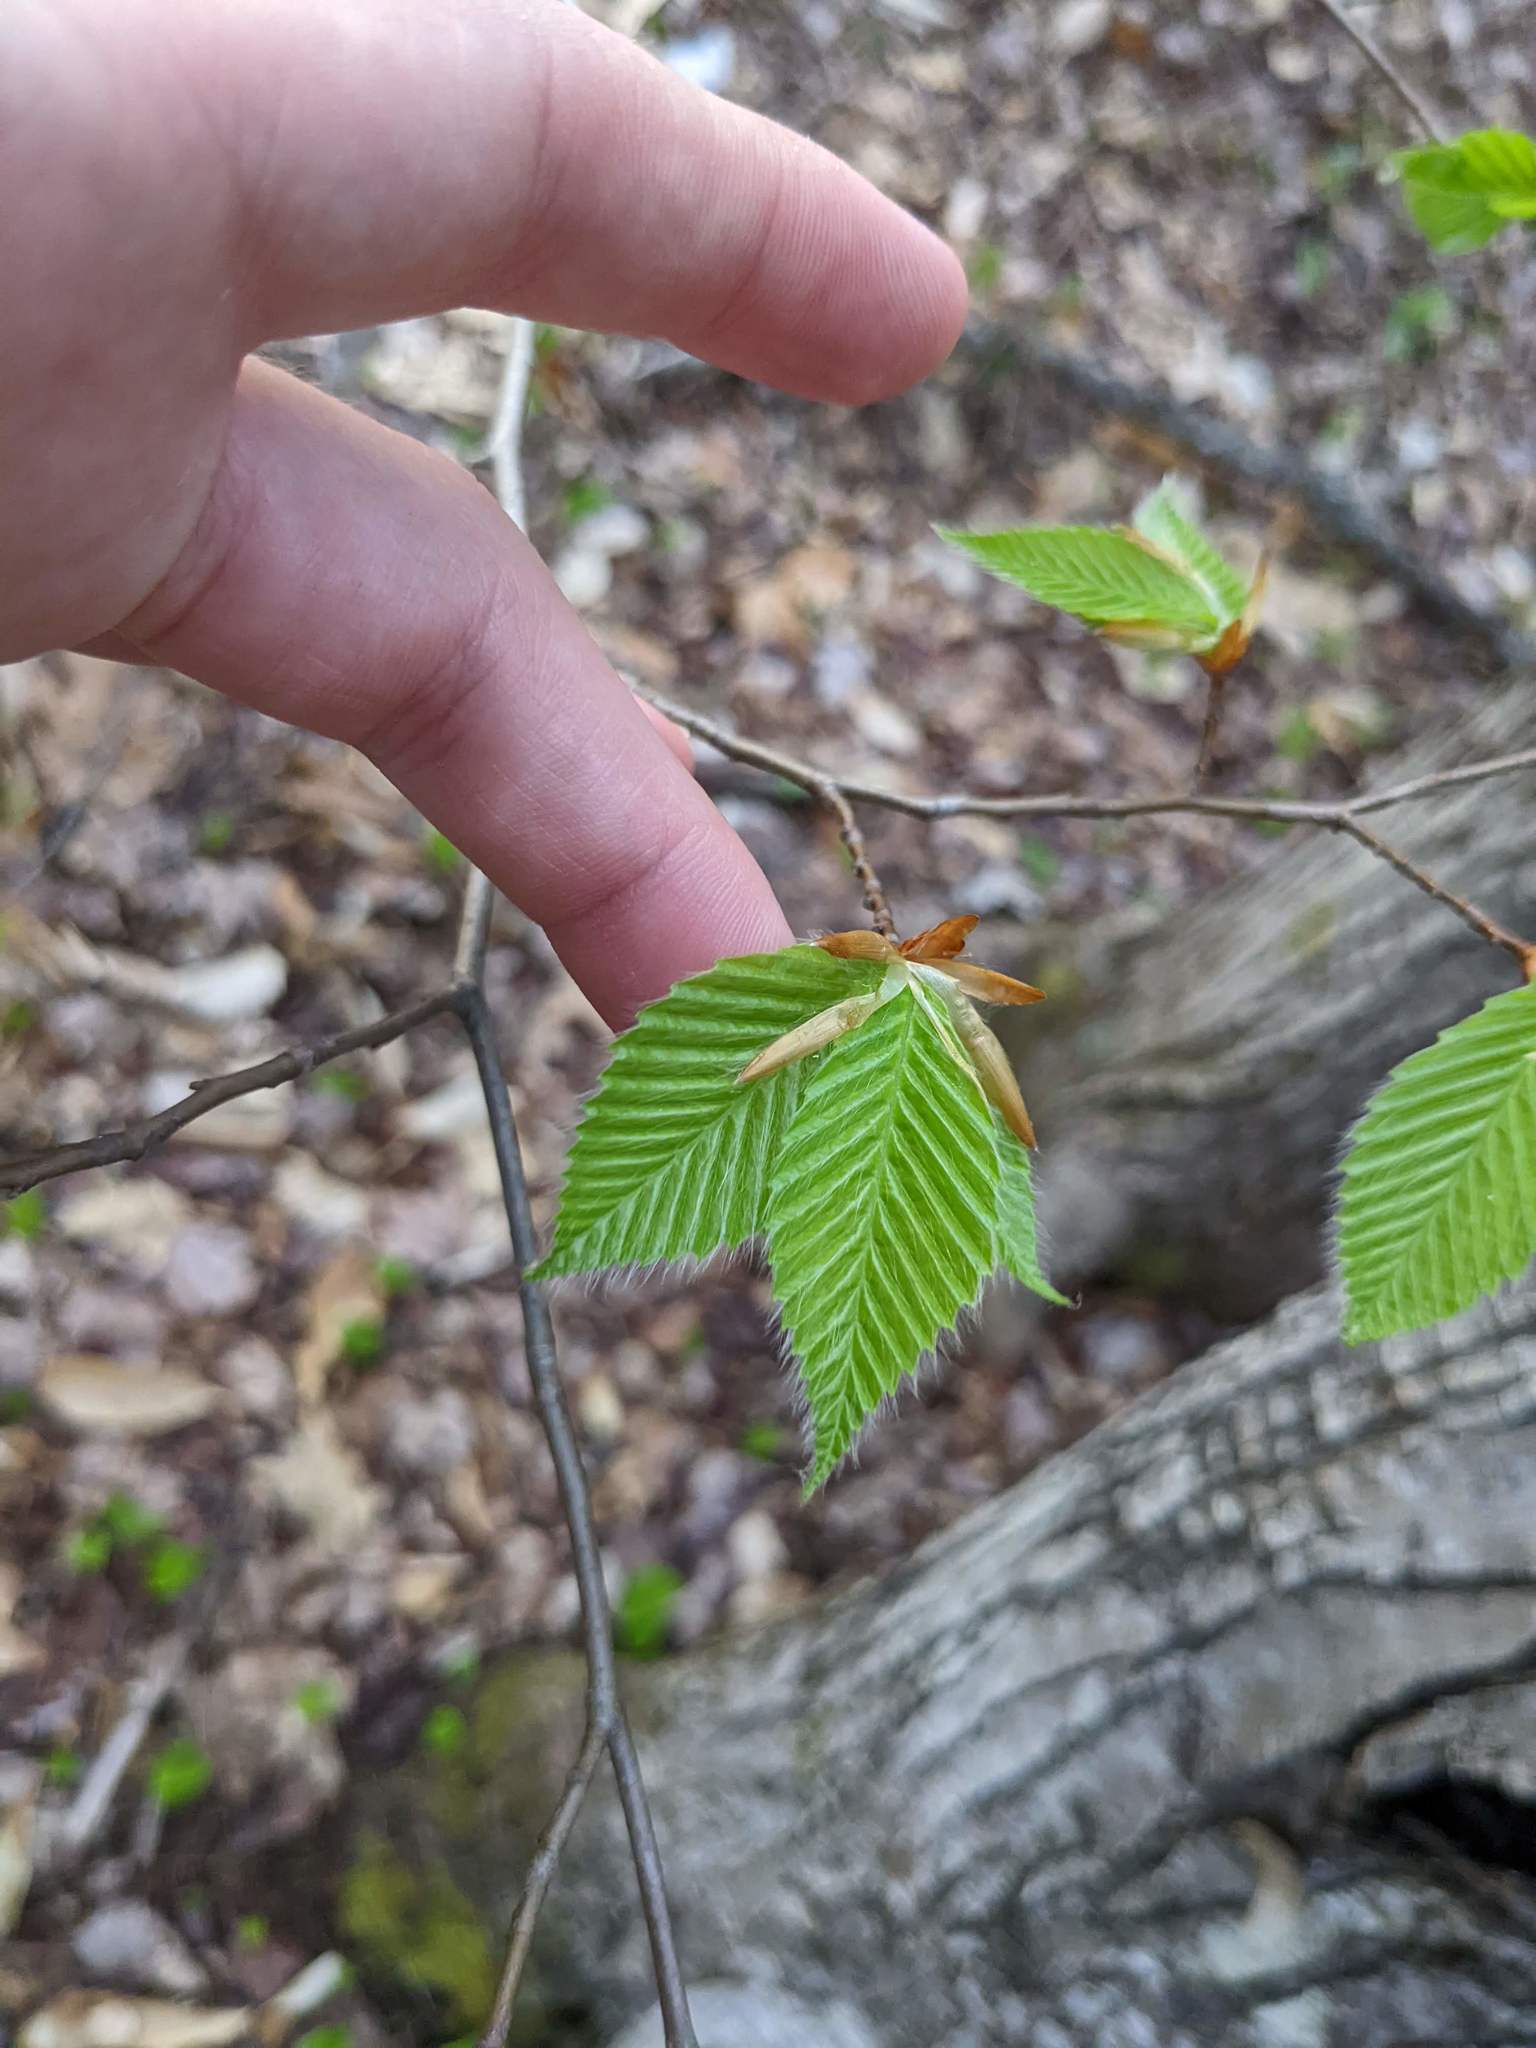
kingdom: Plantae
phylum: Tracheophyta
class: Magnoliopsida
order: Fagales
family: Fagaceae
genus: Fagus
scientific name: Fagus grandifolia
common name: American beech
